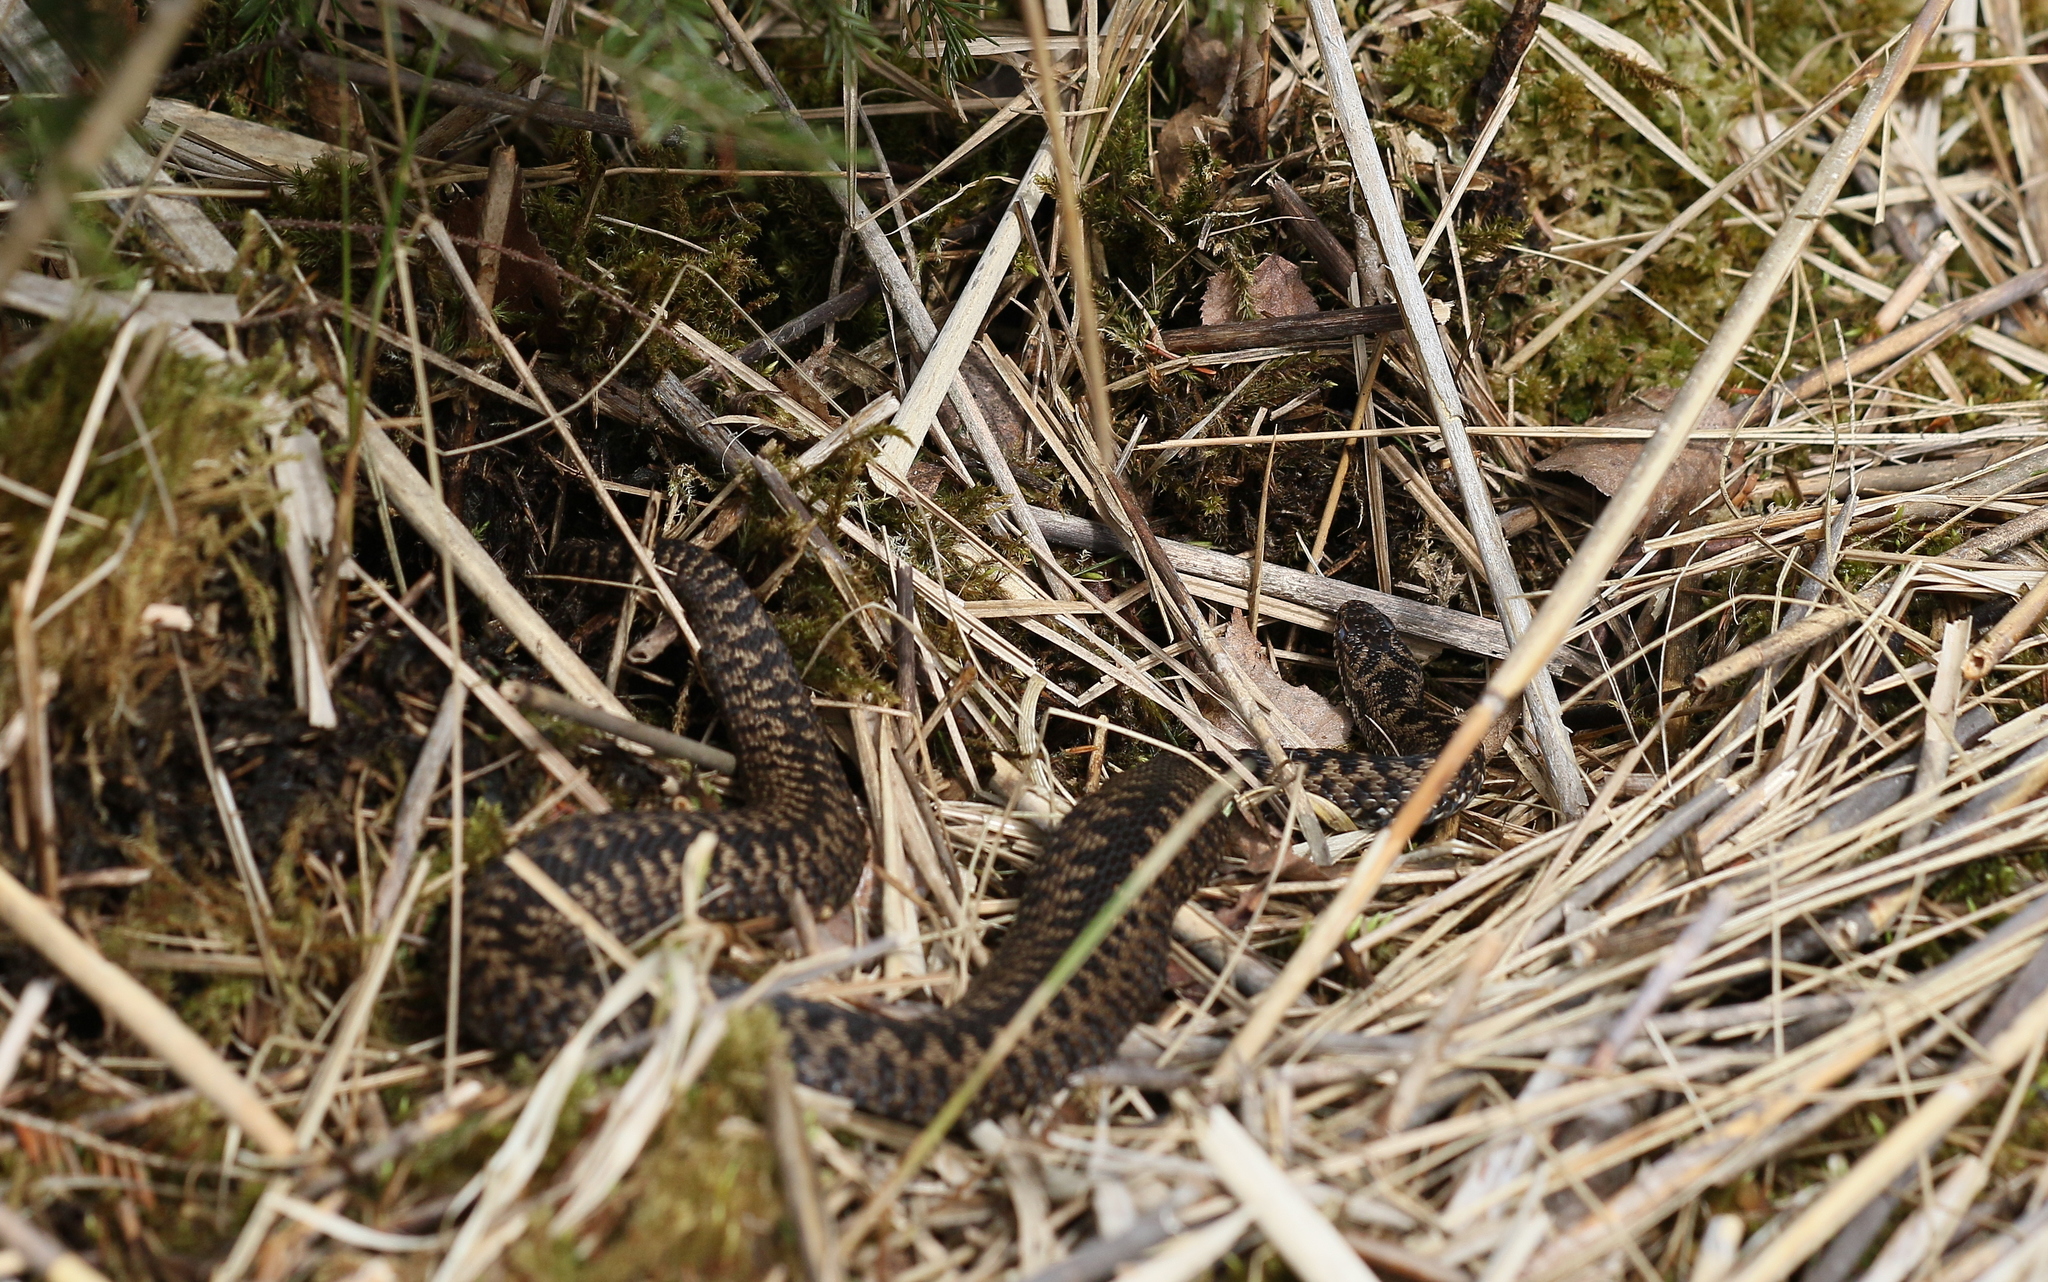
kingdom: Animalia
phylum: Chordata
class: Squamata
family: Viperidae
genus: Vipera
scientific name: Vipera berus
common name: Adder
